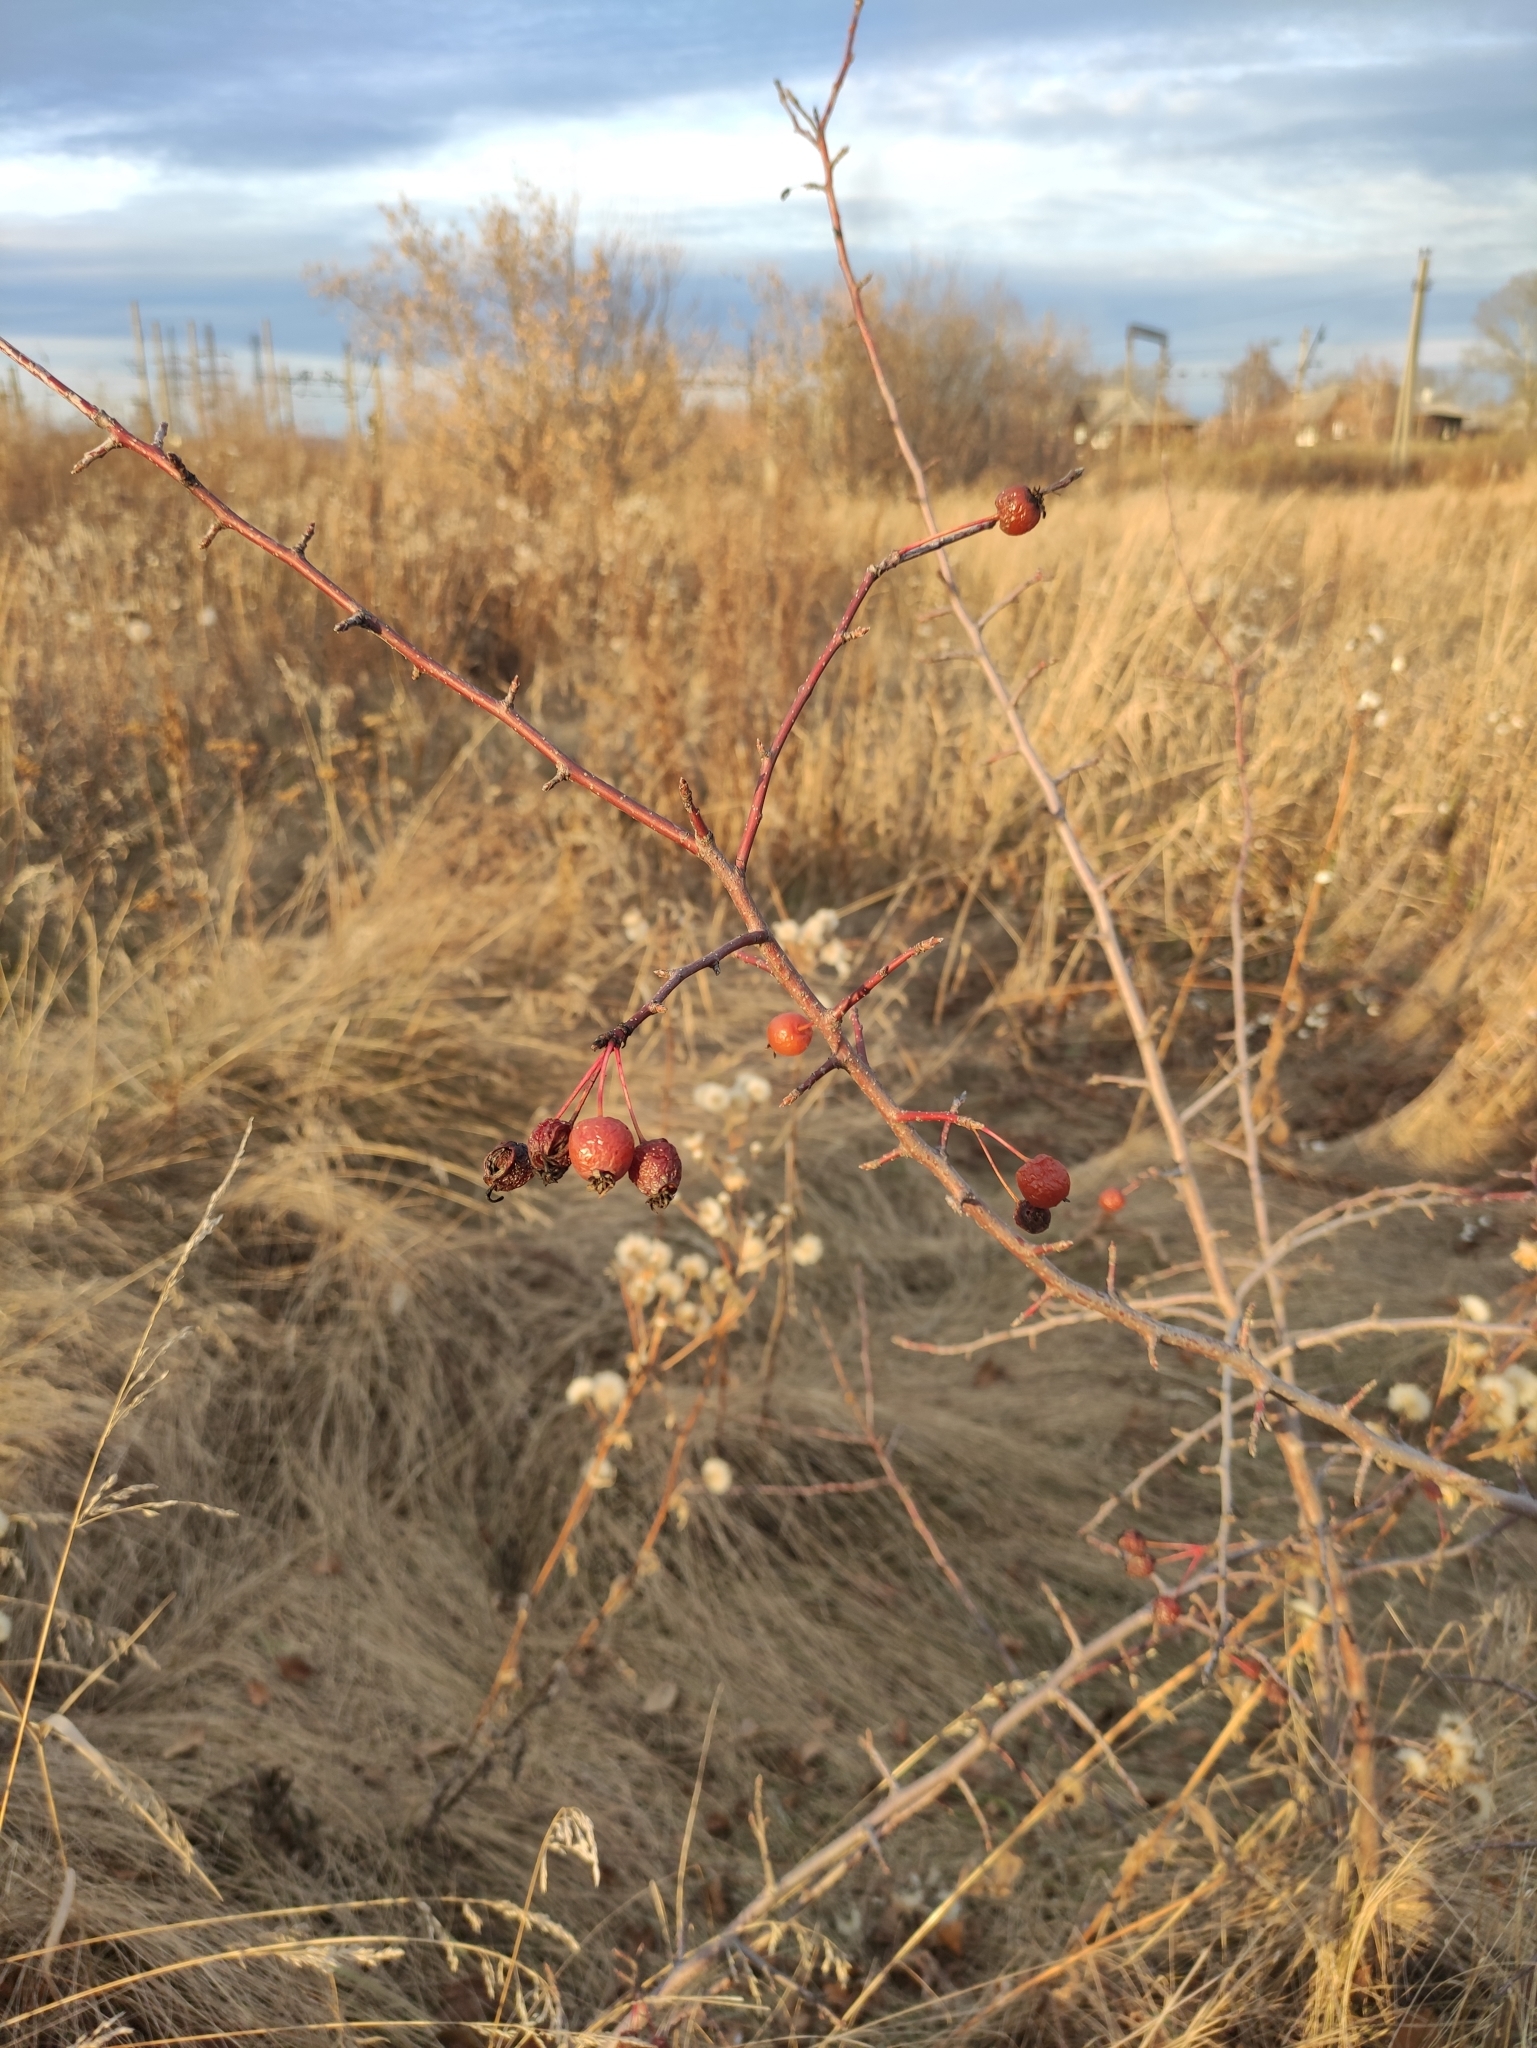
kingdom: Plantae
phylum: Tracheophyta
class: Magnoliopsida
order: Rosales
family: Rosaceae
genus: Malus
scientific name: Malus baccata
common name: Siberian crab
